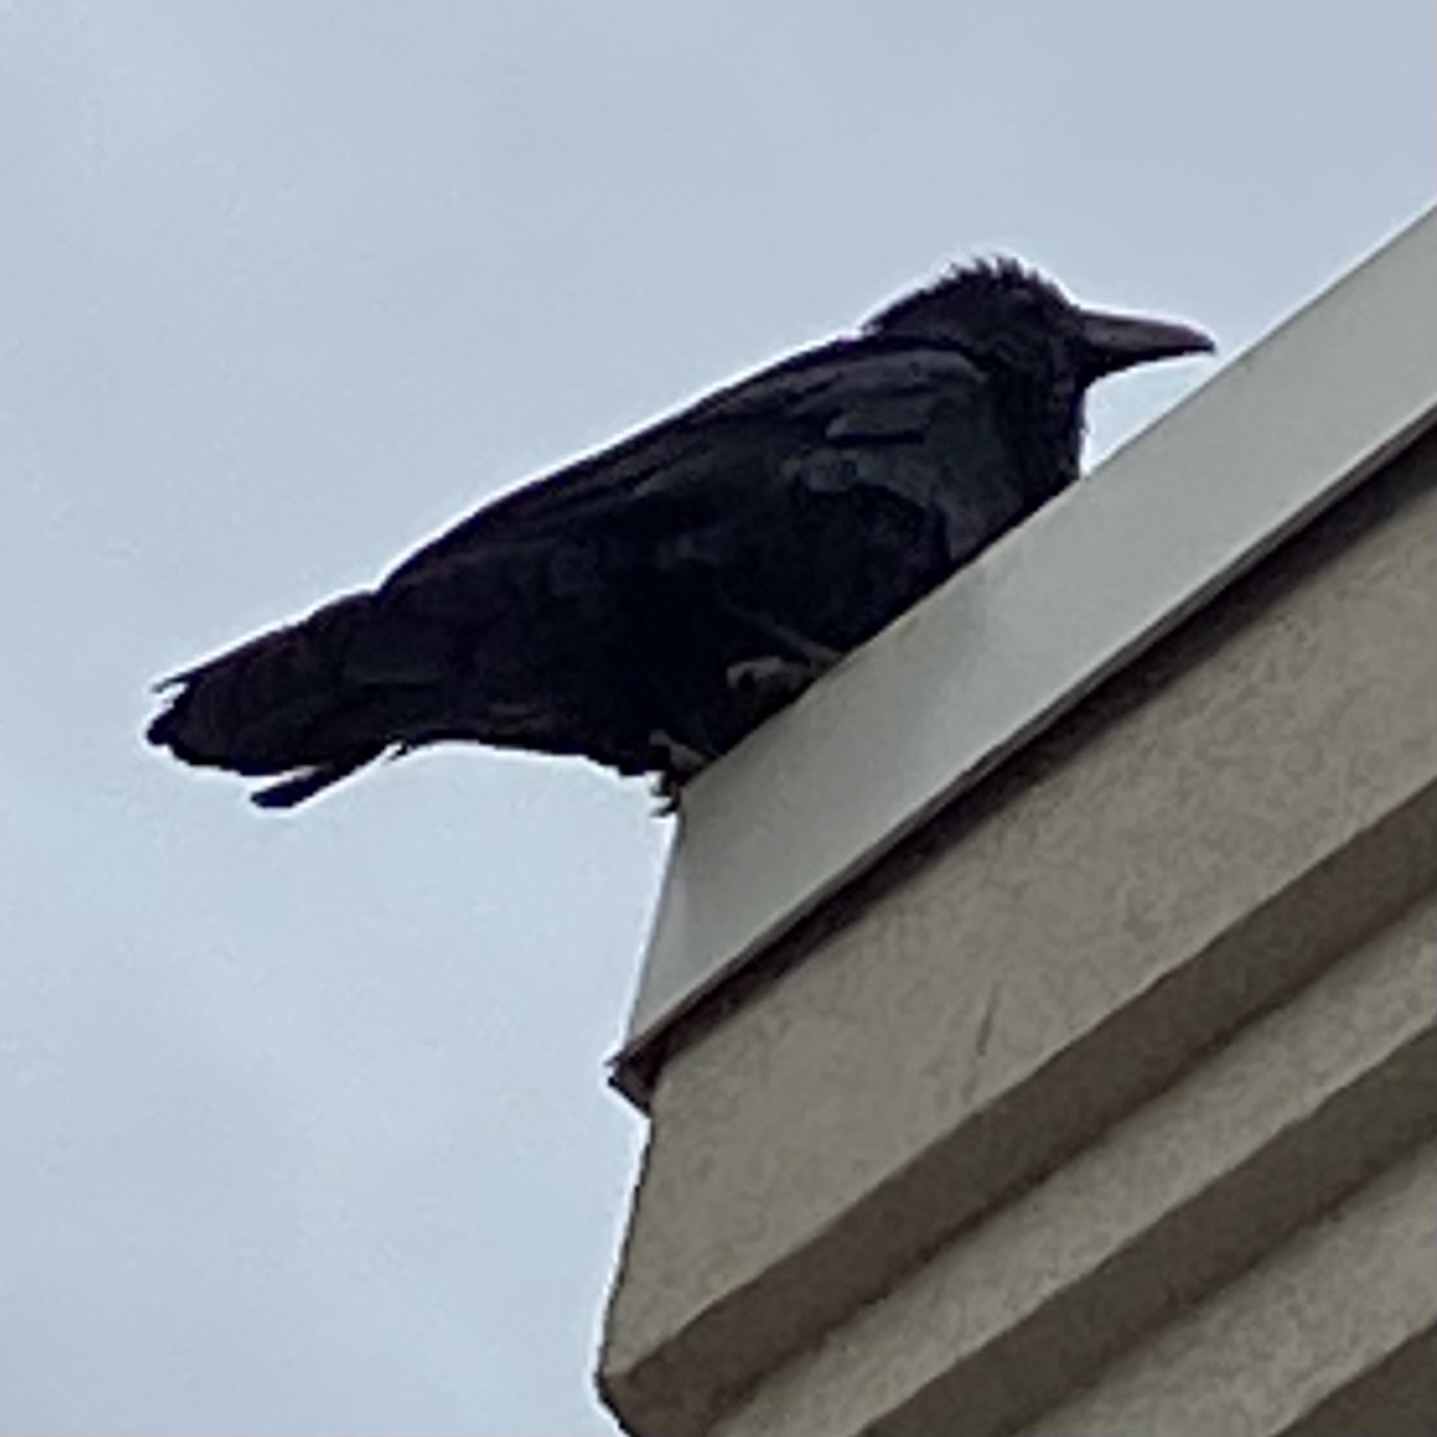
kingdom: Animalia
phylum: Chordata
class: Aves
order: Passeriformes
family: Corvidae
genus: Corvus
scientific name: Corvus corax
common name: Common raven
